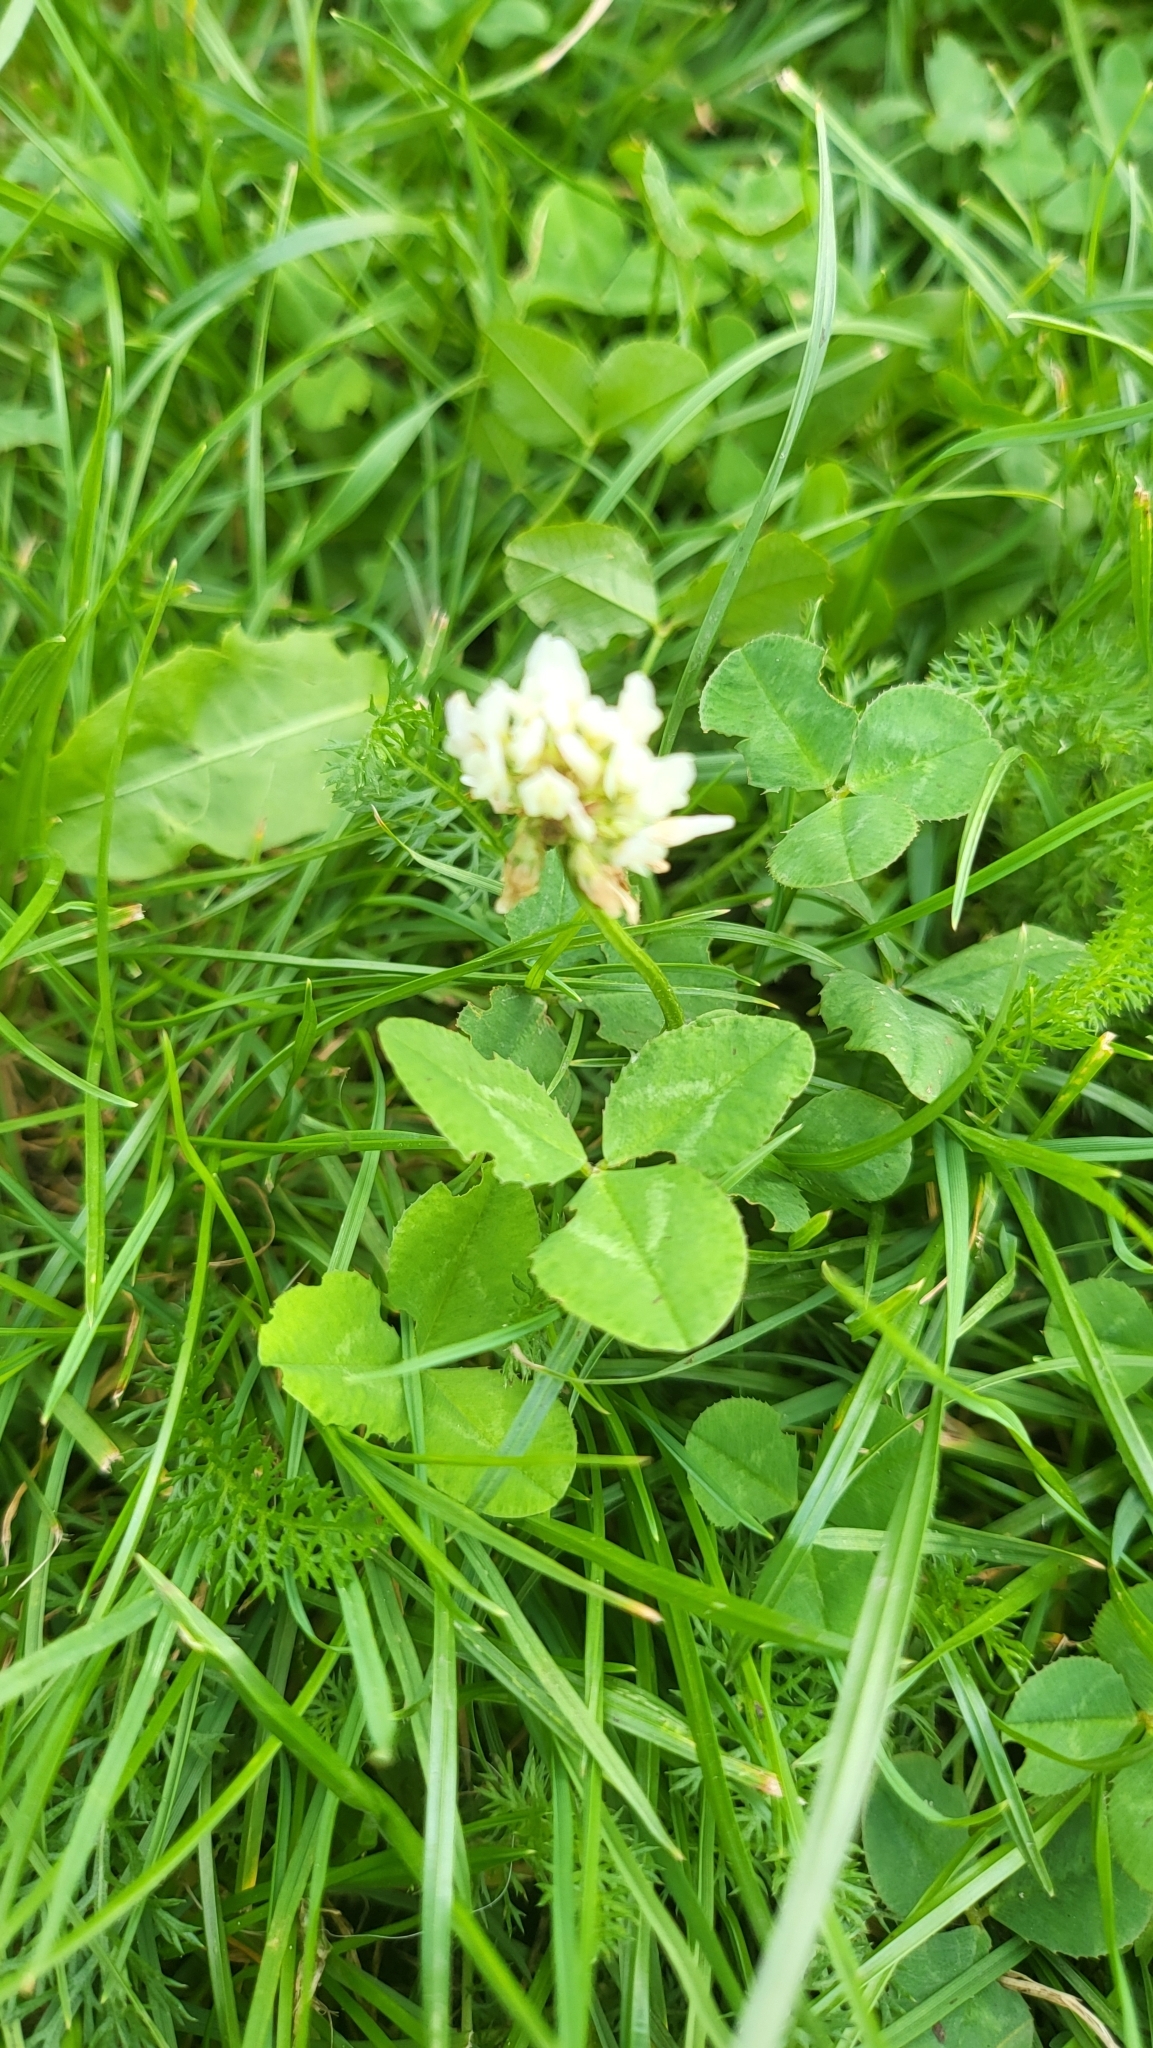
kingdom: Plantae
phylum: Tracheophyta
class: Magnoliopsida
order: Fabales
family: Fabaceae
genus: Trifolium
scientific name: Trifolium repens
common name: White clover
